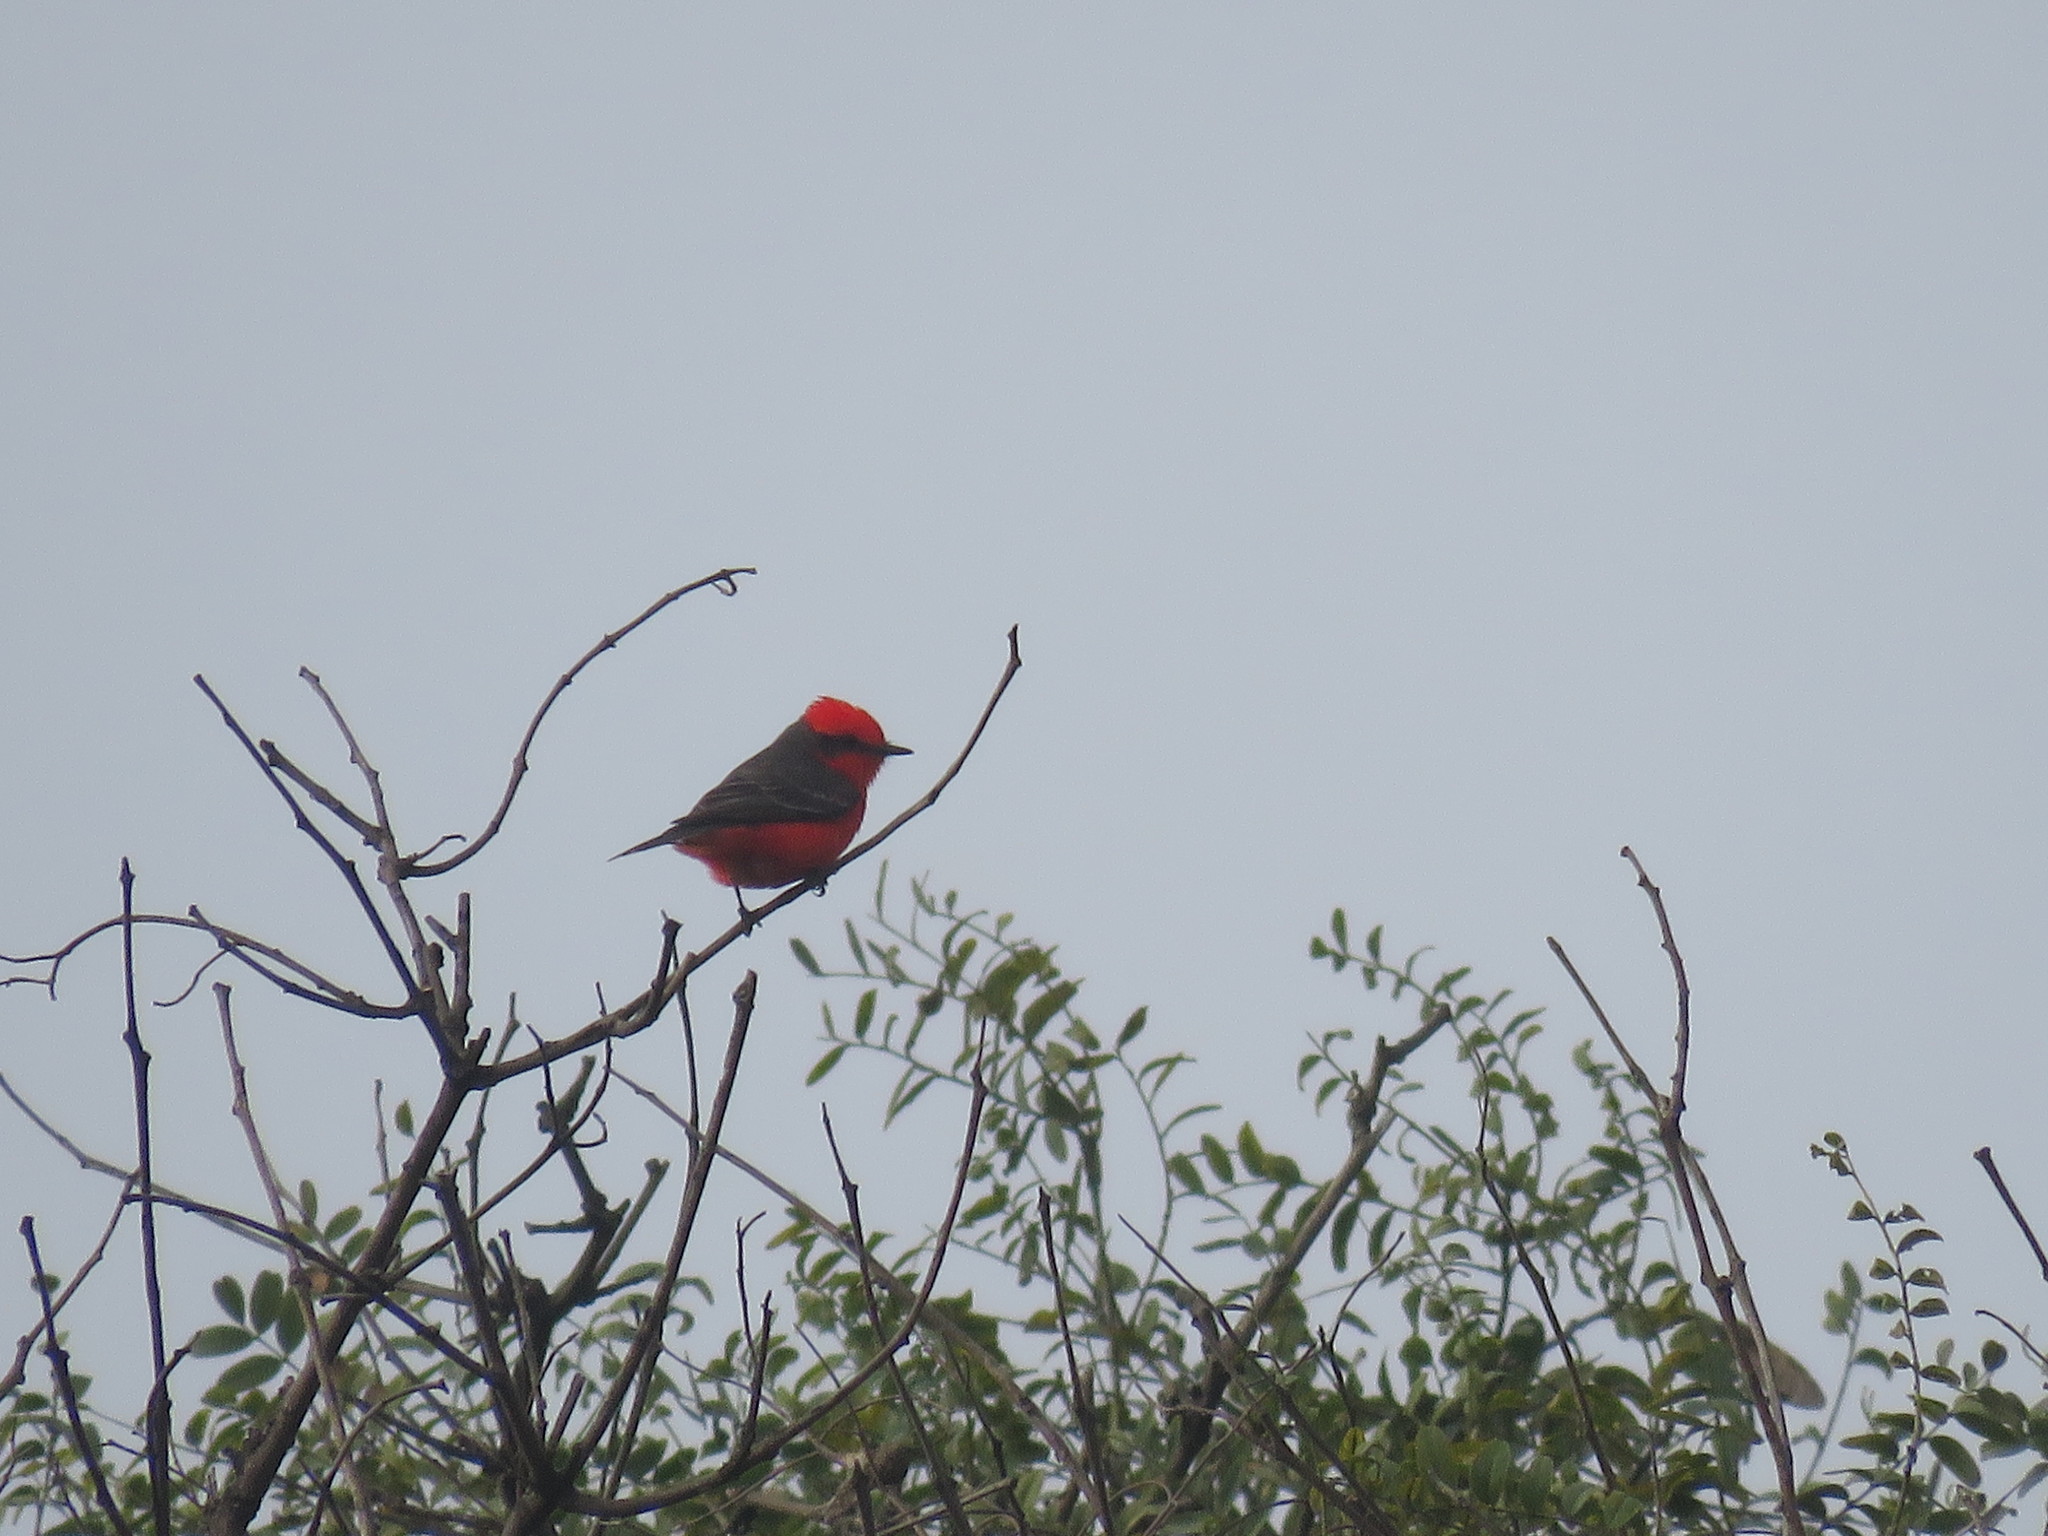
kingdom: Animalia
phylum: Chordata
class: Aves
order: Passeriformes
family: Tyrannidae
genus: Pyrocephalus
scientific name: Pyrocephalus rubinus
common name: Vermilion flycatcher
